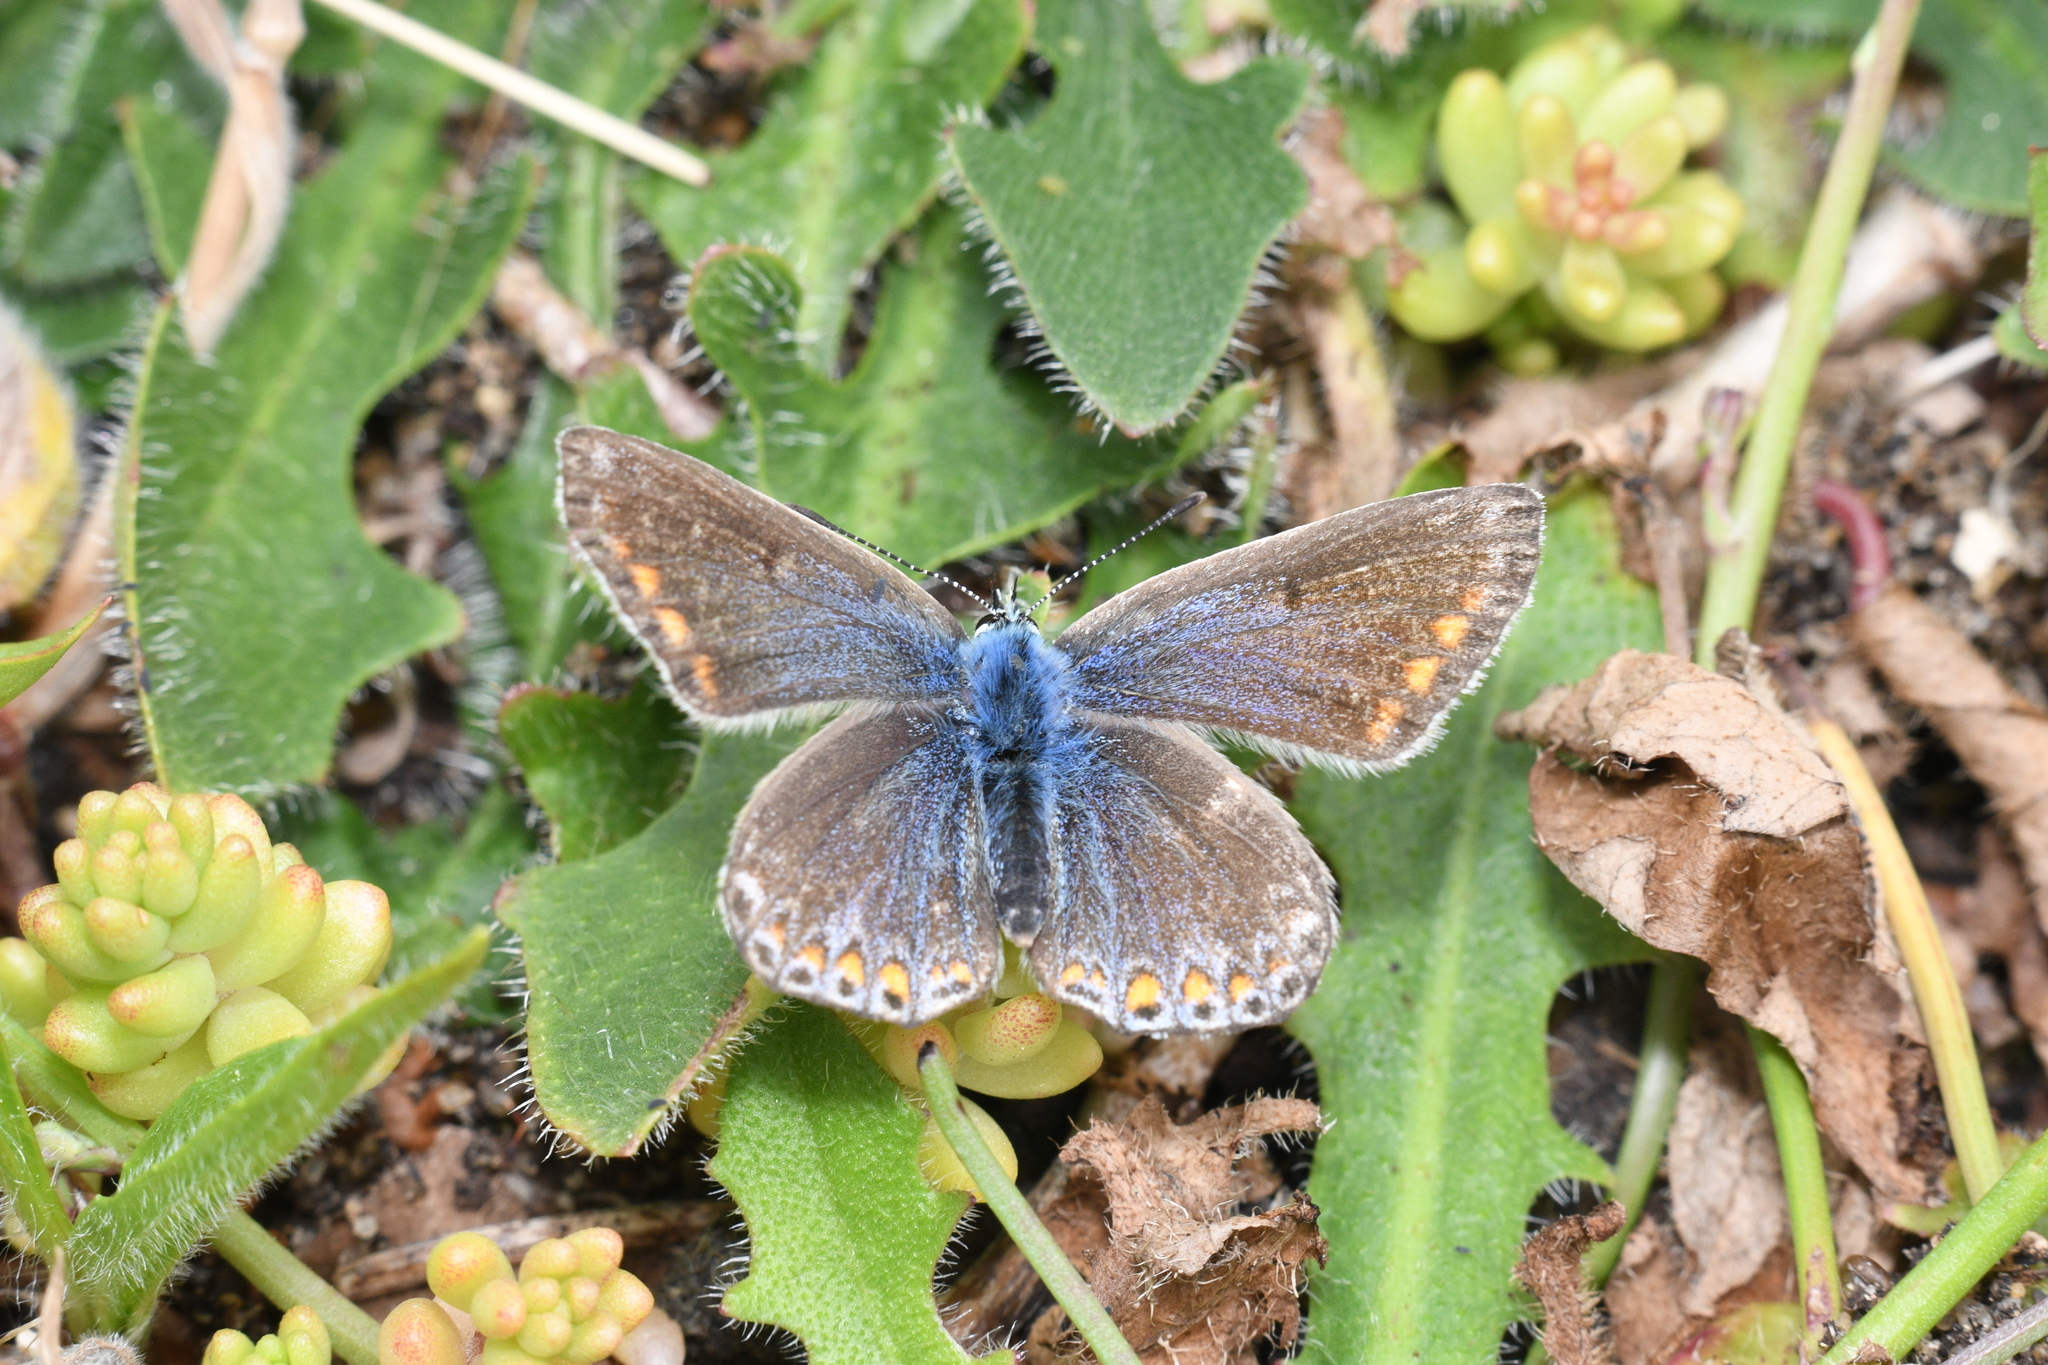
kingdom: Animalia
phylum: Arthropoda
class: Insecta
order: Lepidoptera
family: Lycaenidae
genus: Polyommatus
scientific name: Polyommatus icarus
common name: Common blue
